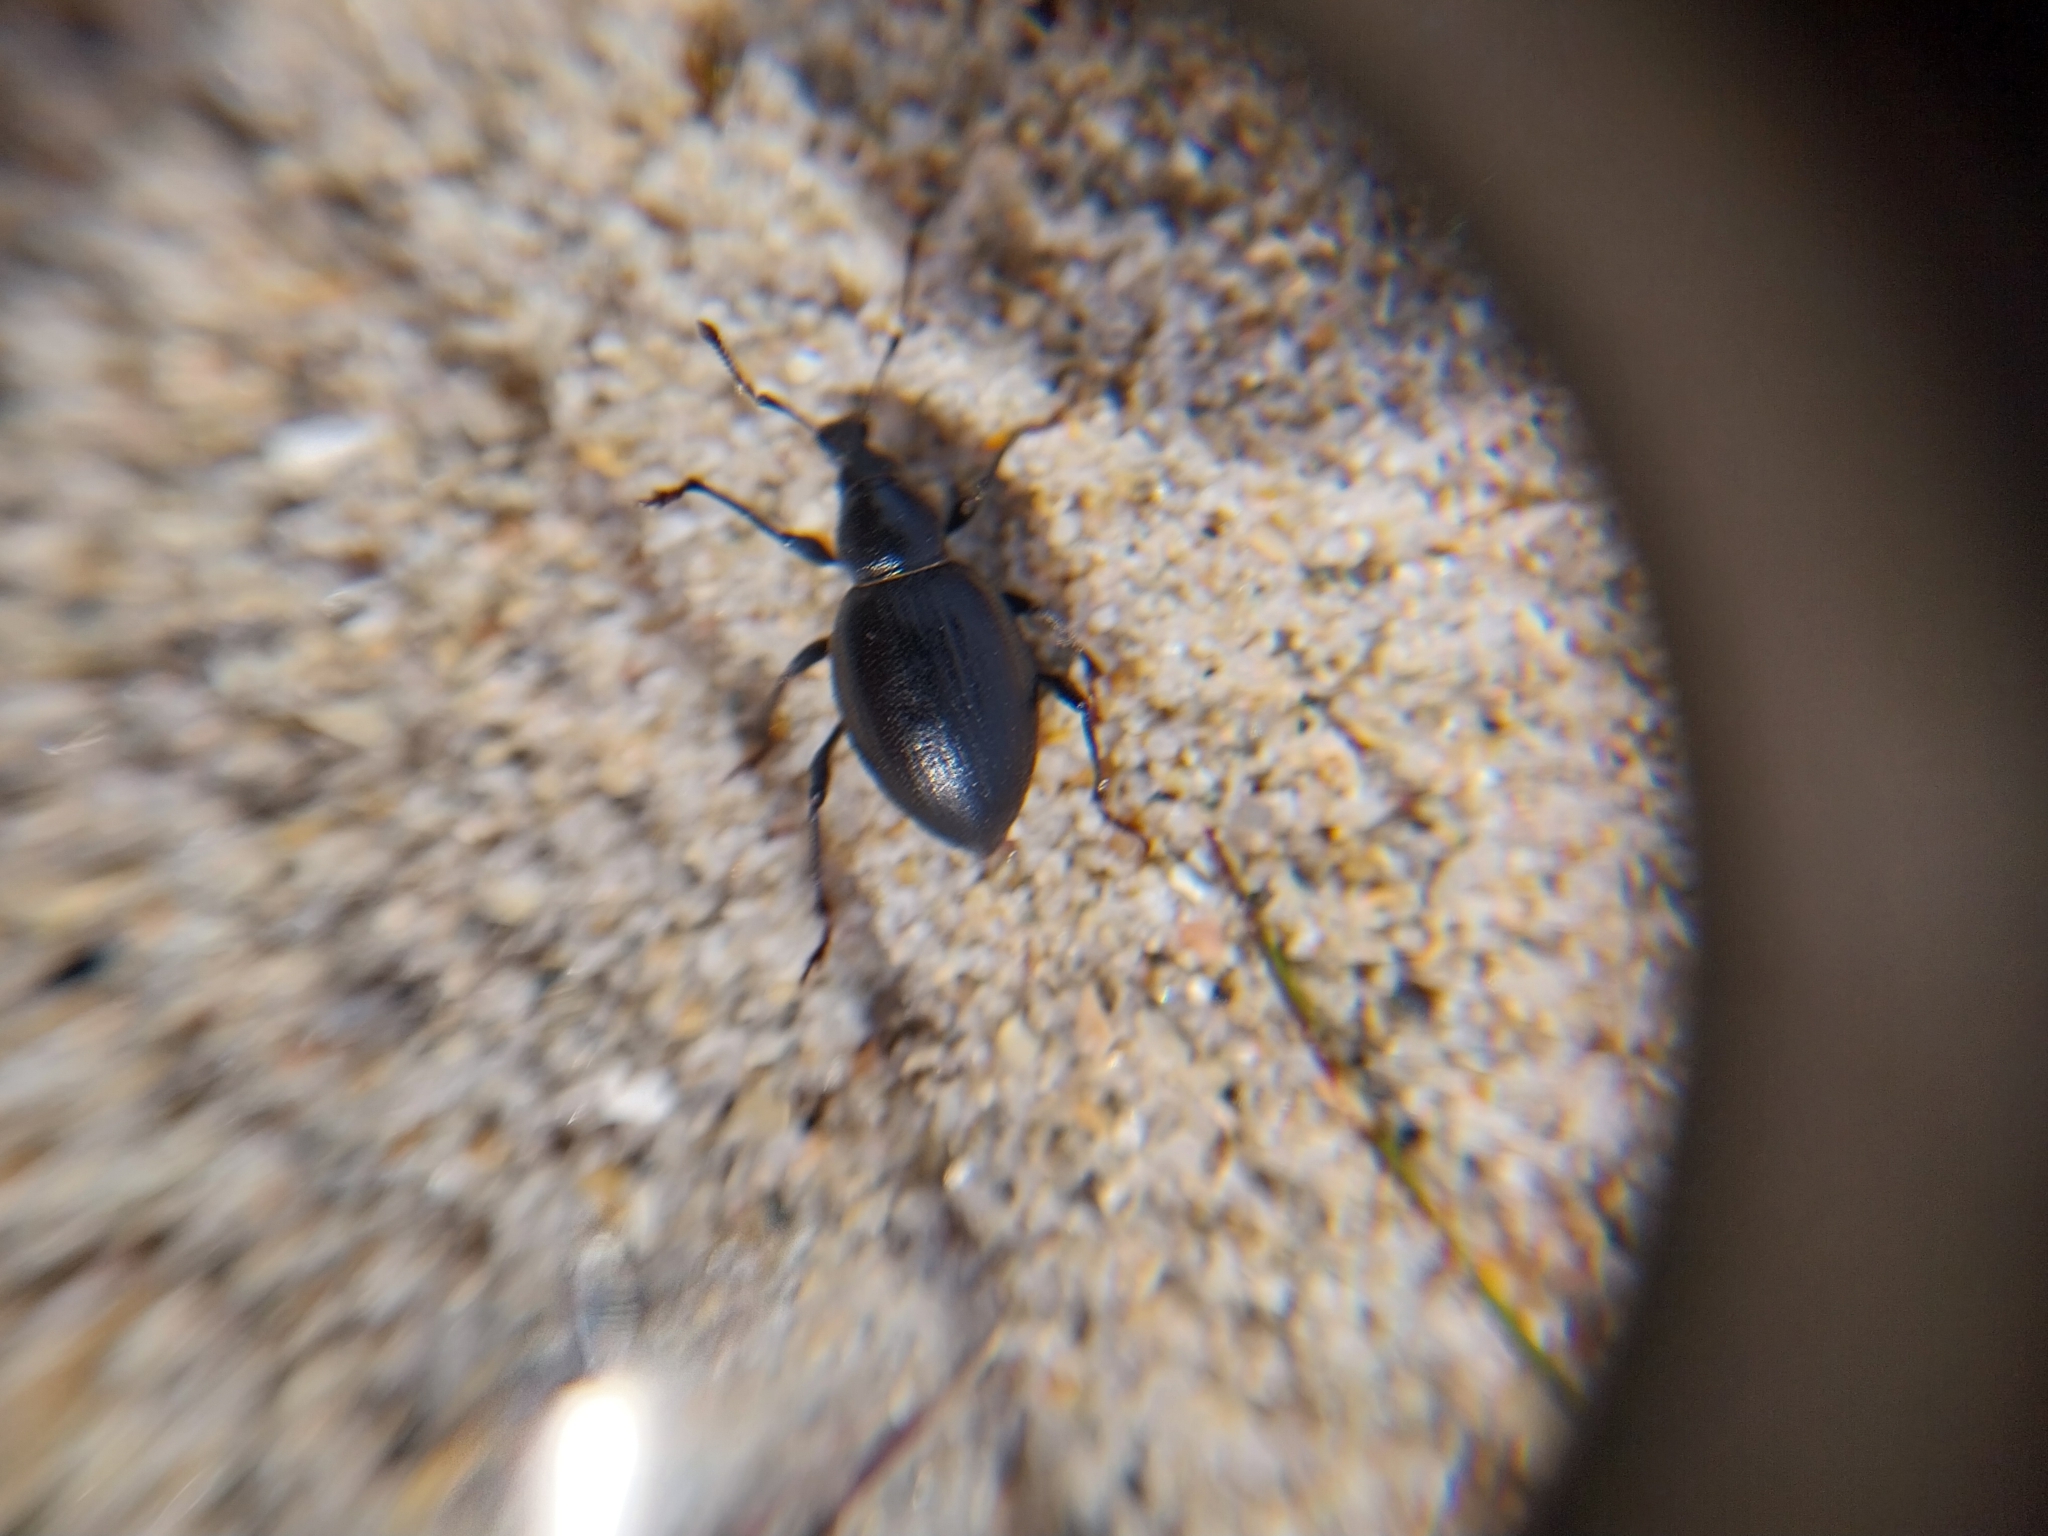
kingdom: Animalia
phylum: Arthropoda
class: Insecta
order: Coleoptera
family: Curculionidae
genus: Otiorhynchus
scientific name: Otiorhynchus atroapterus
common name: Black marram weevil
